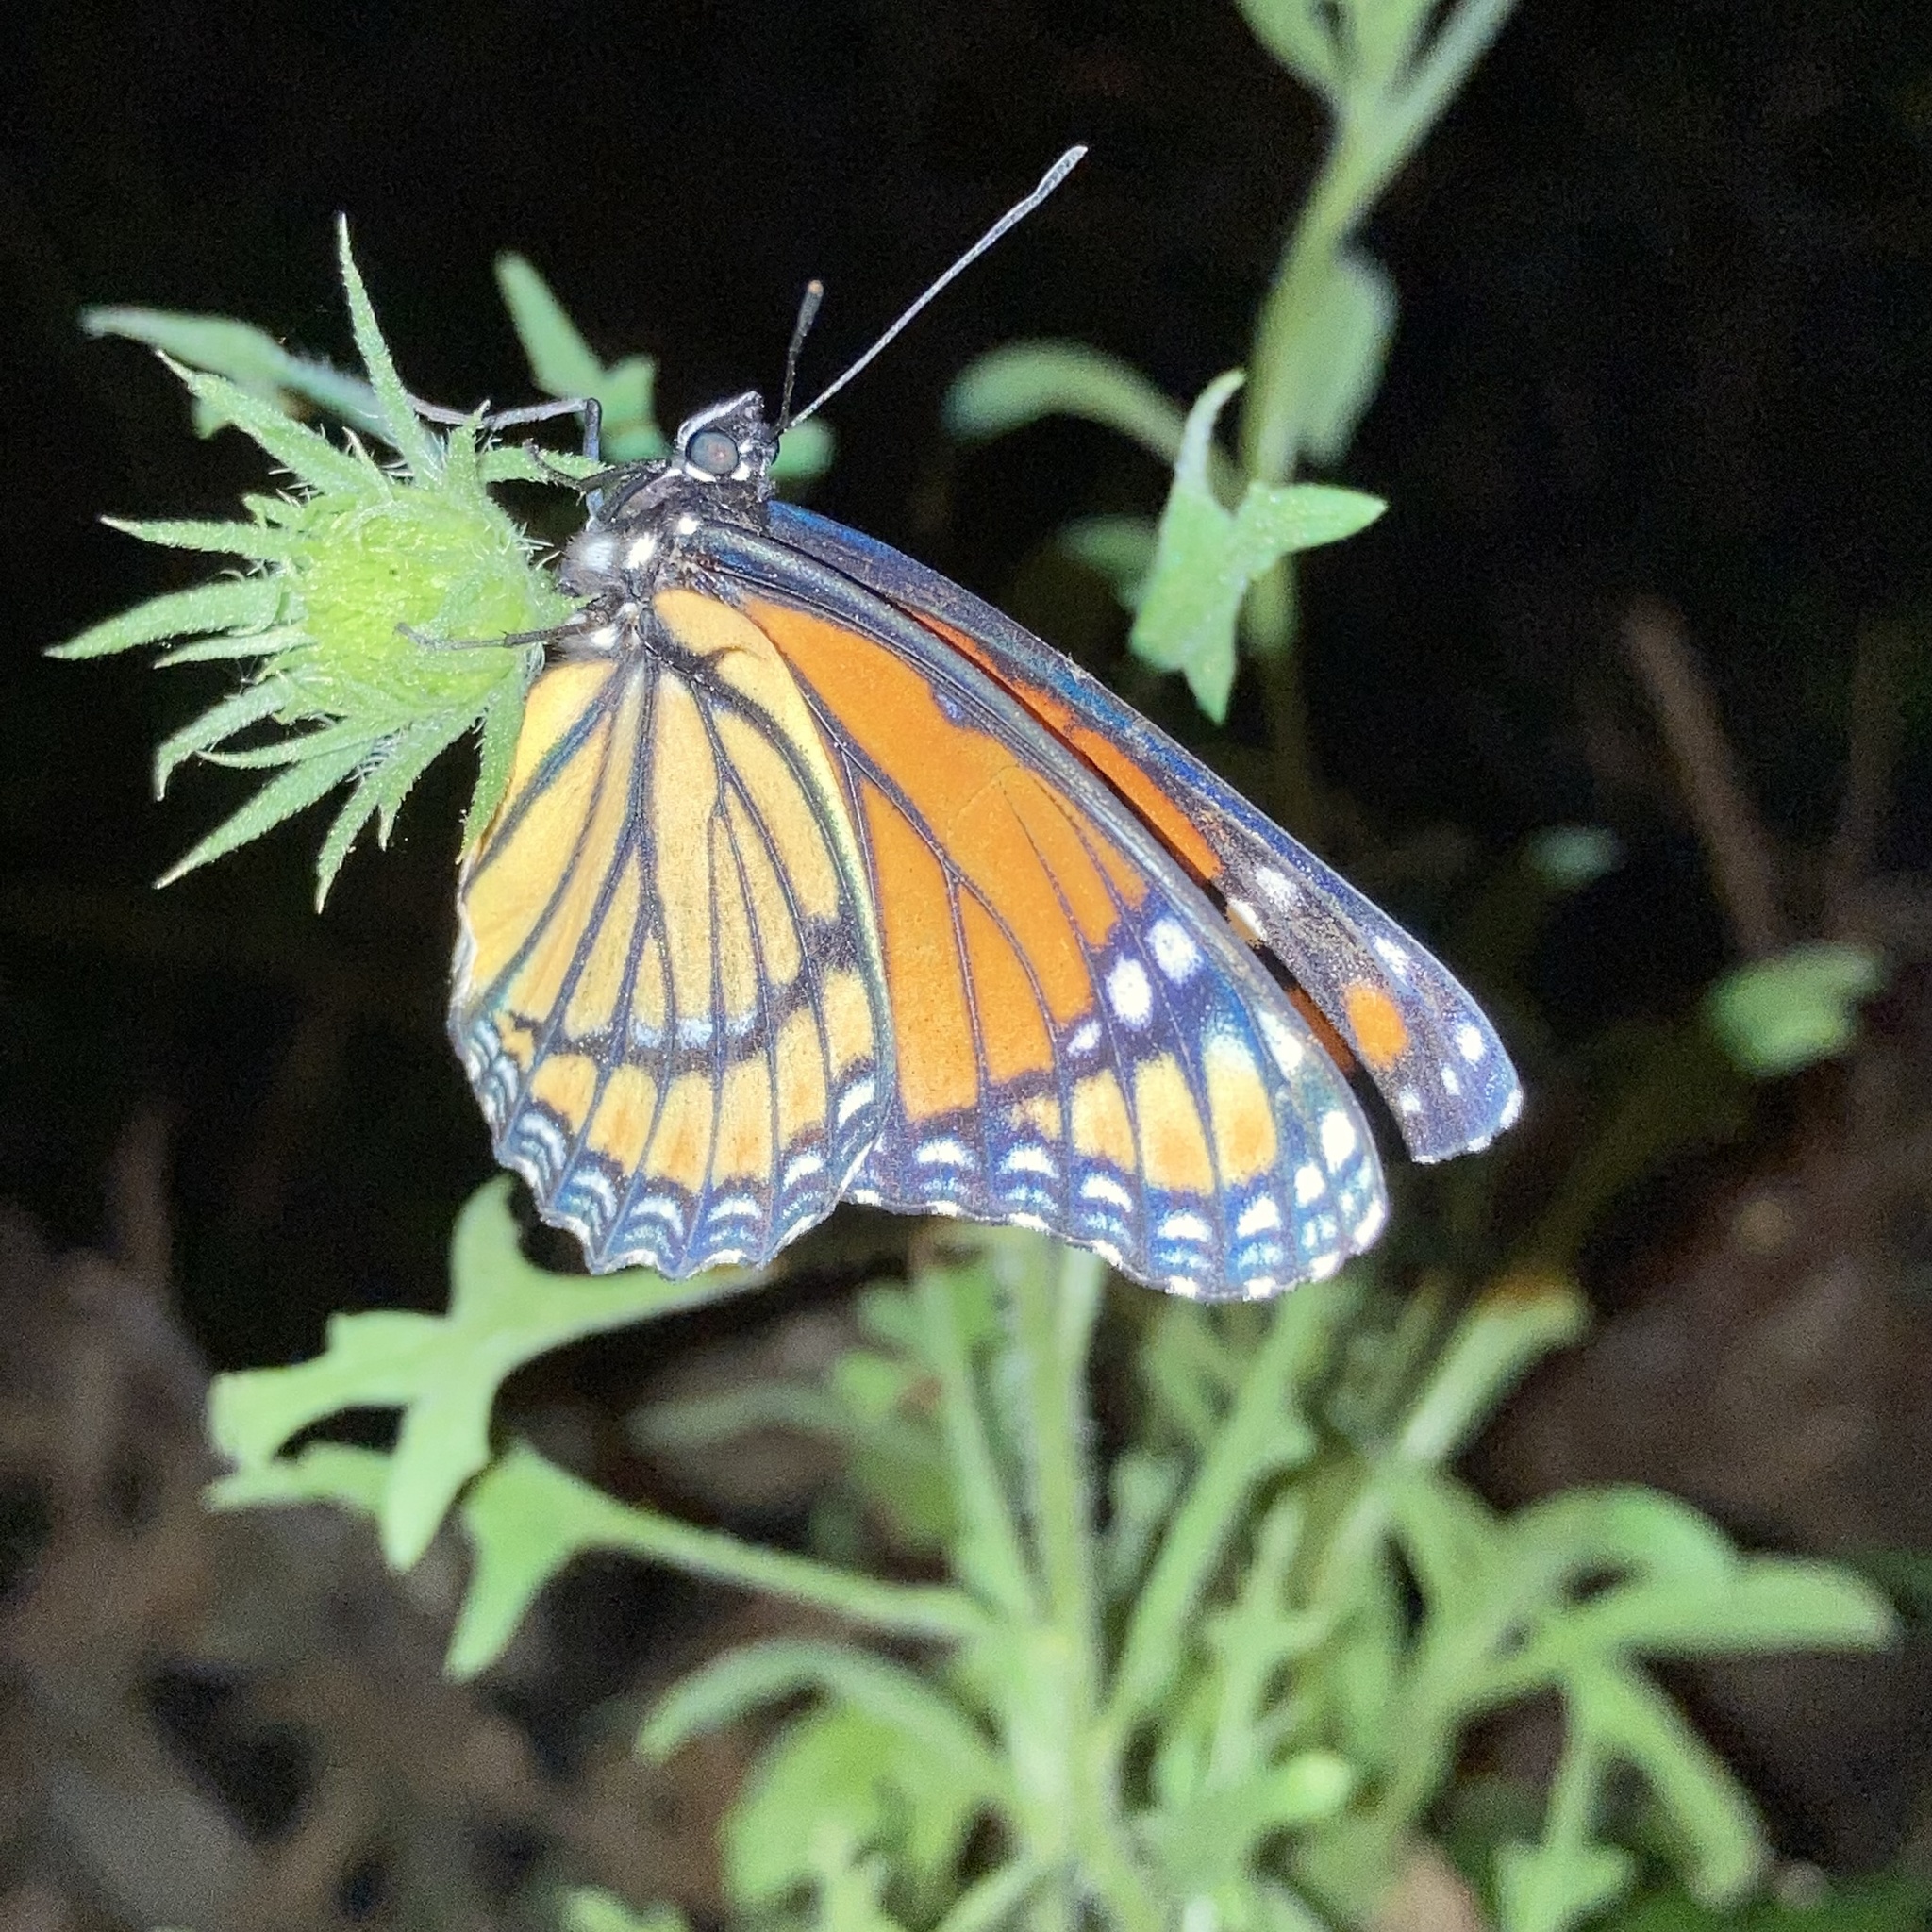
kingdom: Animalia
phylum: Arthropoda
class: Insecta
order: Lepidoptera
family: Nymphalidae
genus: Limenitis
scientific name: Limenitis archippus
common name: Viceroy
